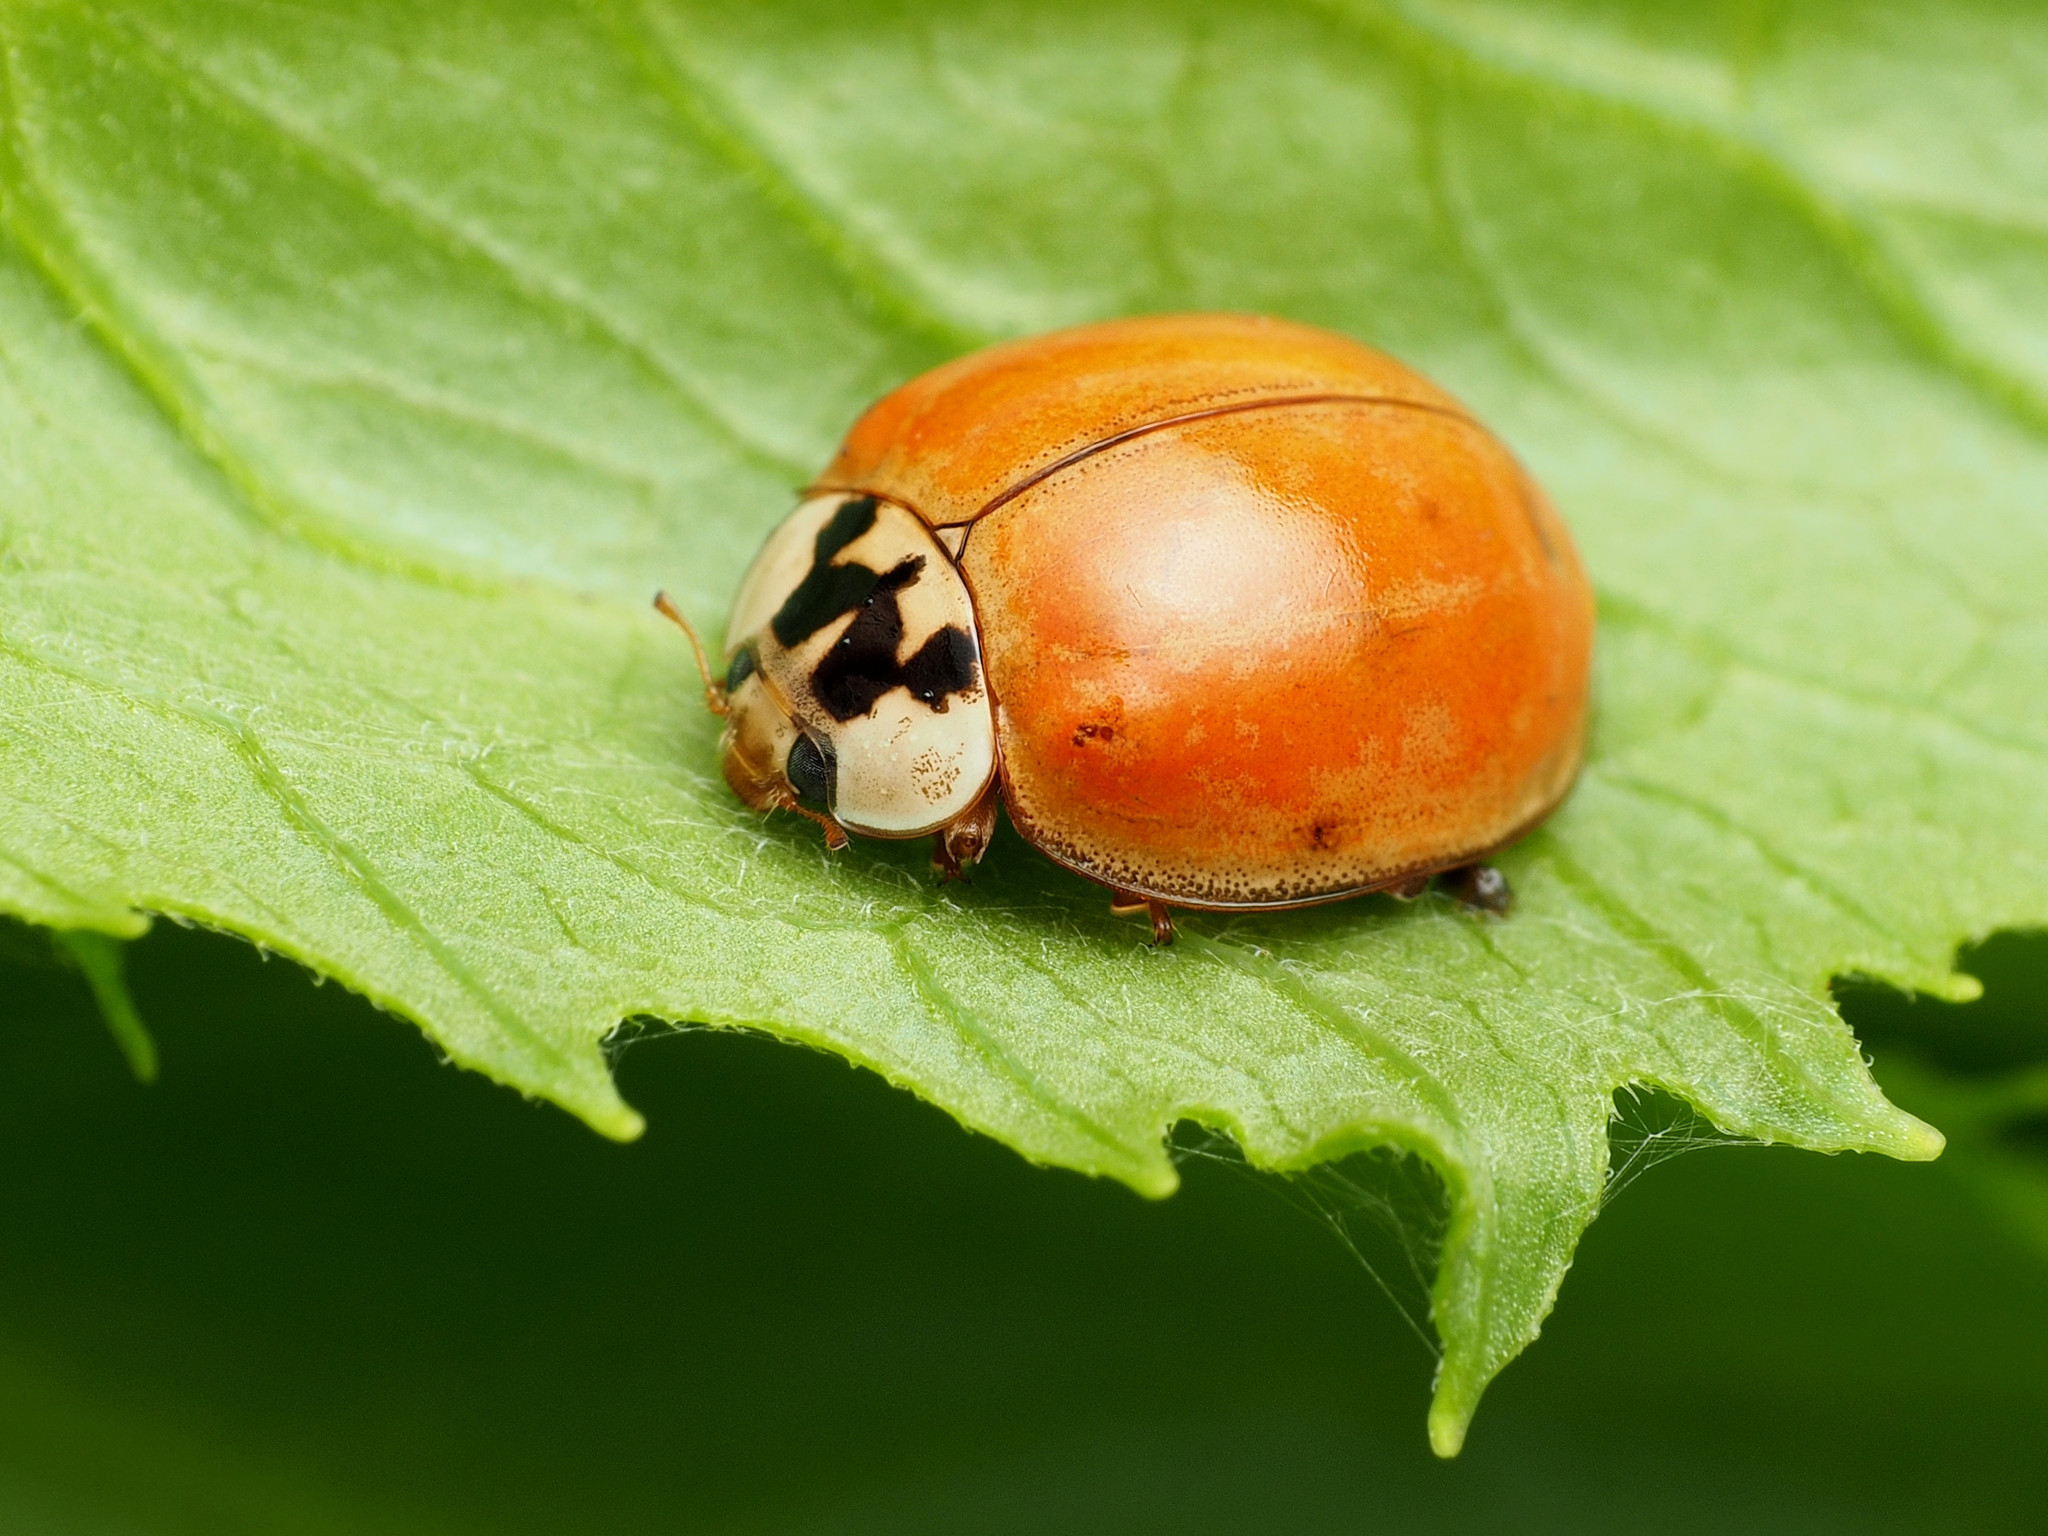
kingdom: Animalia
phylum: Arthropoda
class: Insecta
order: Coleoptera
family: Coccinellidae
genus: Harmonia
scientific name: Harmonia axyridis
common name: Harlequin ladybird
